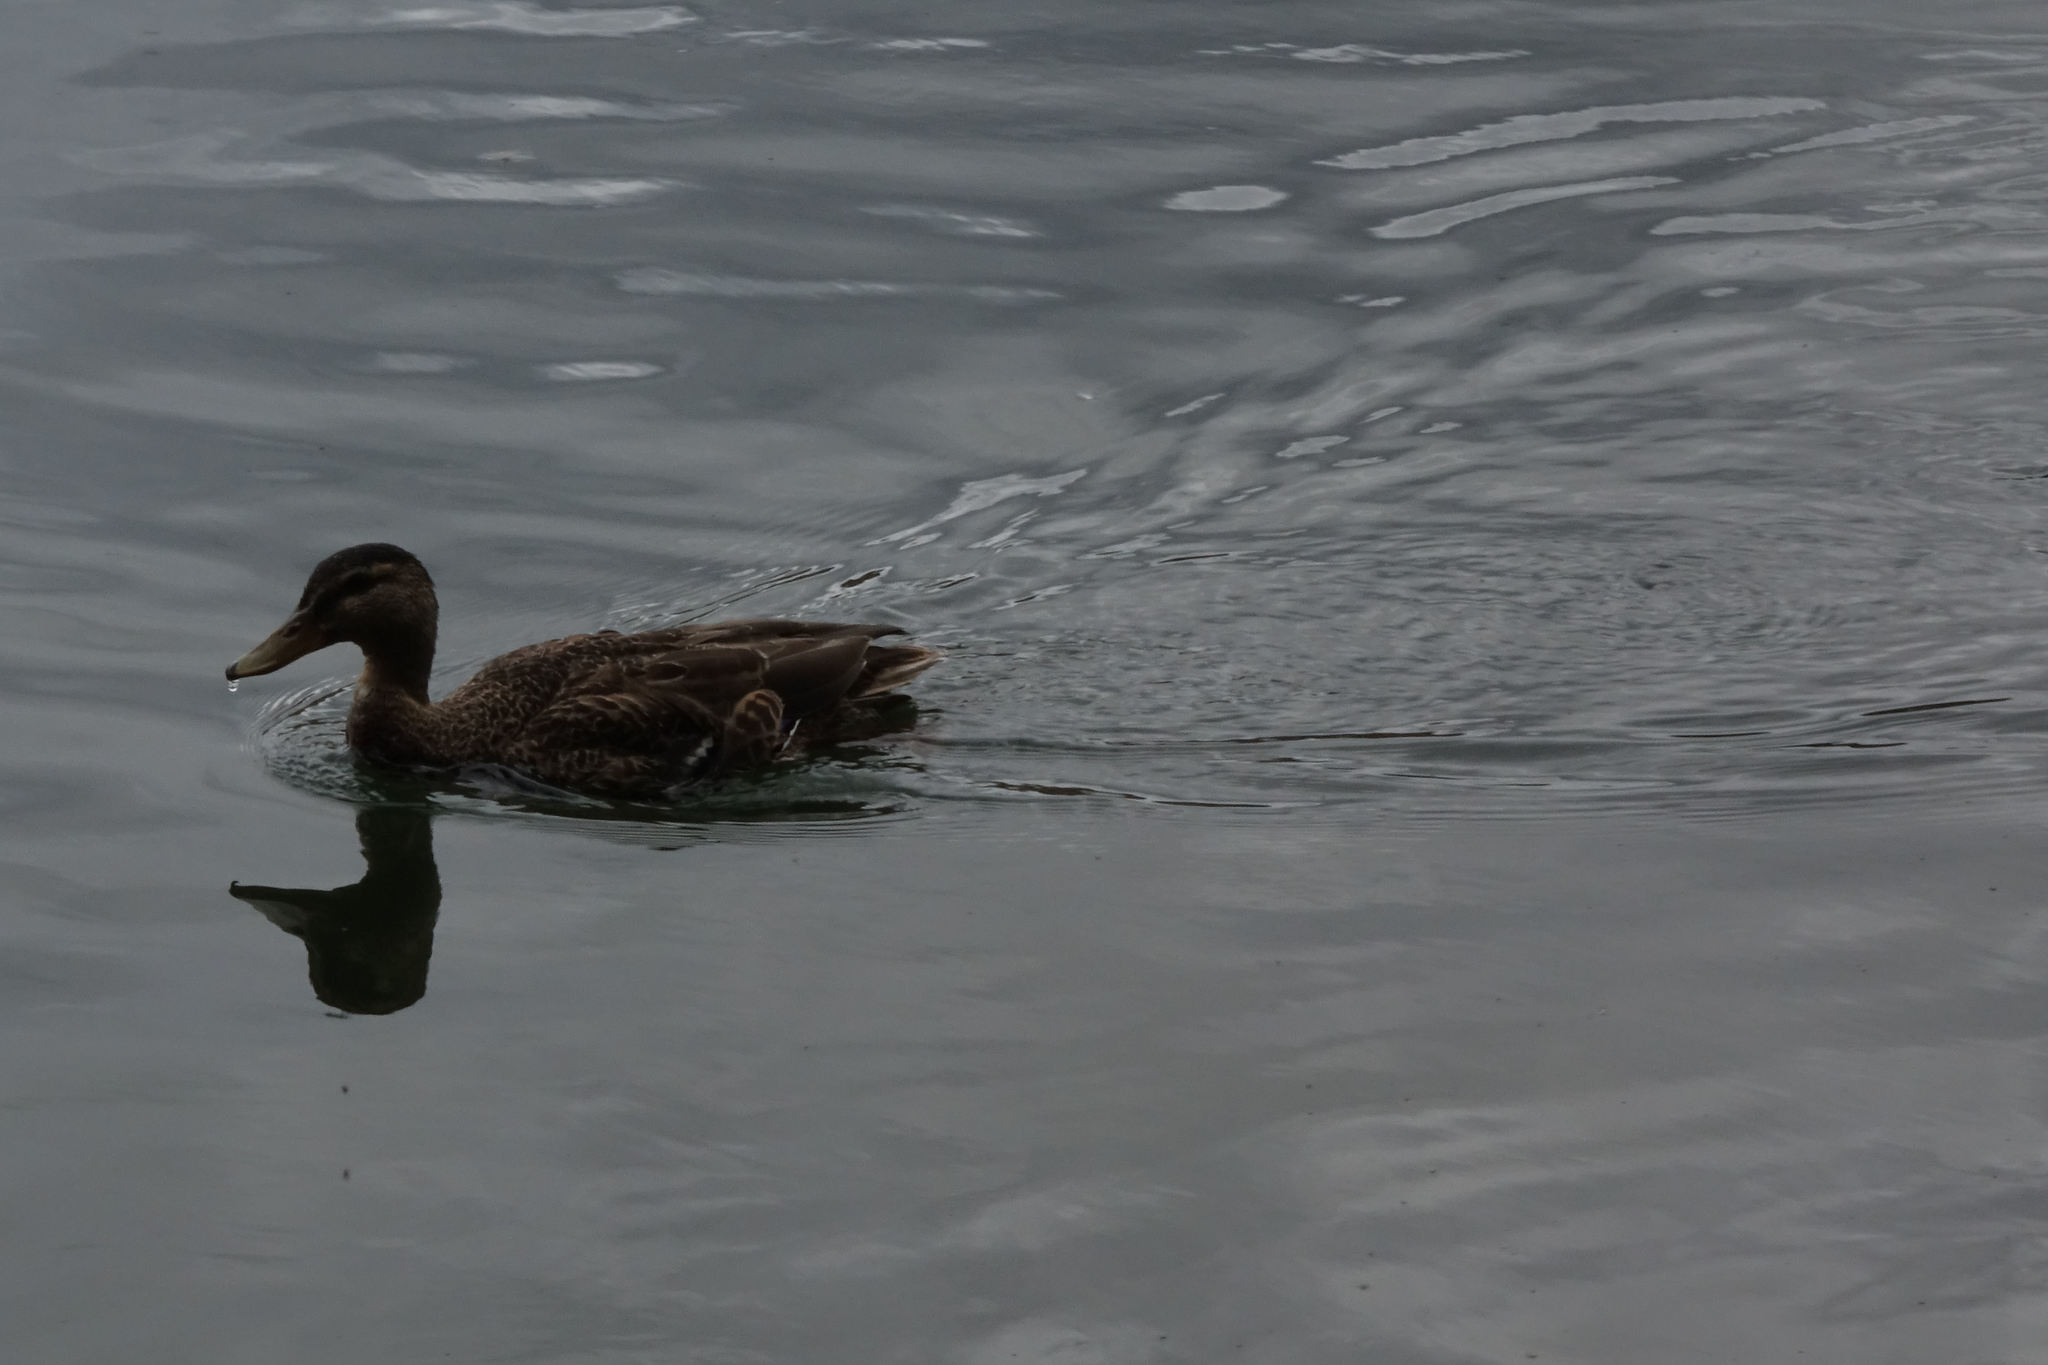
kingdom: Animalia
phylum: Chordata
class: Aves
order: Anseriformes
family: Anatidae
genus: Anas
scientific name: Anas platyrhynchos
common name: Mallard
